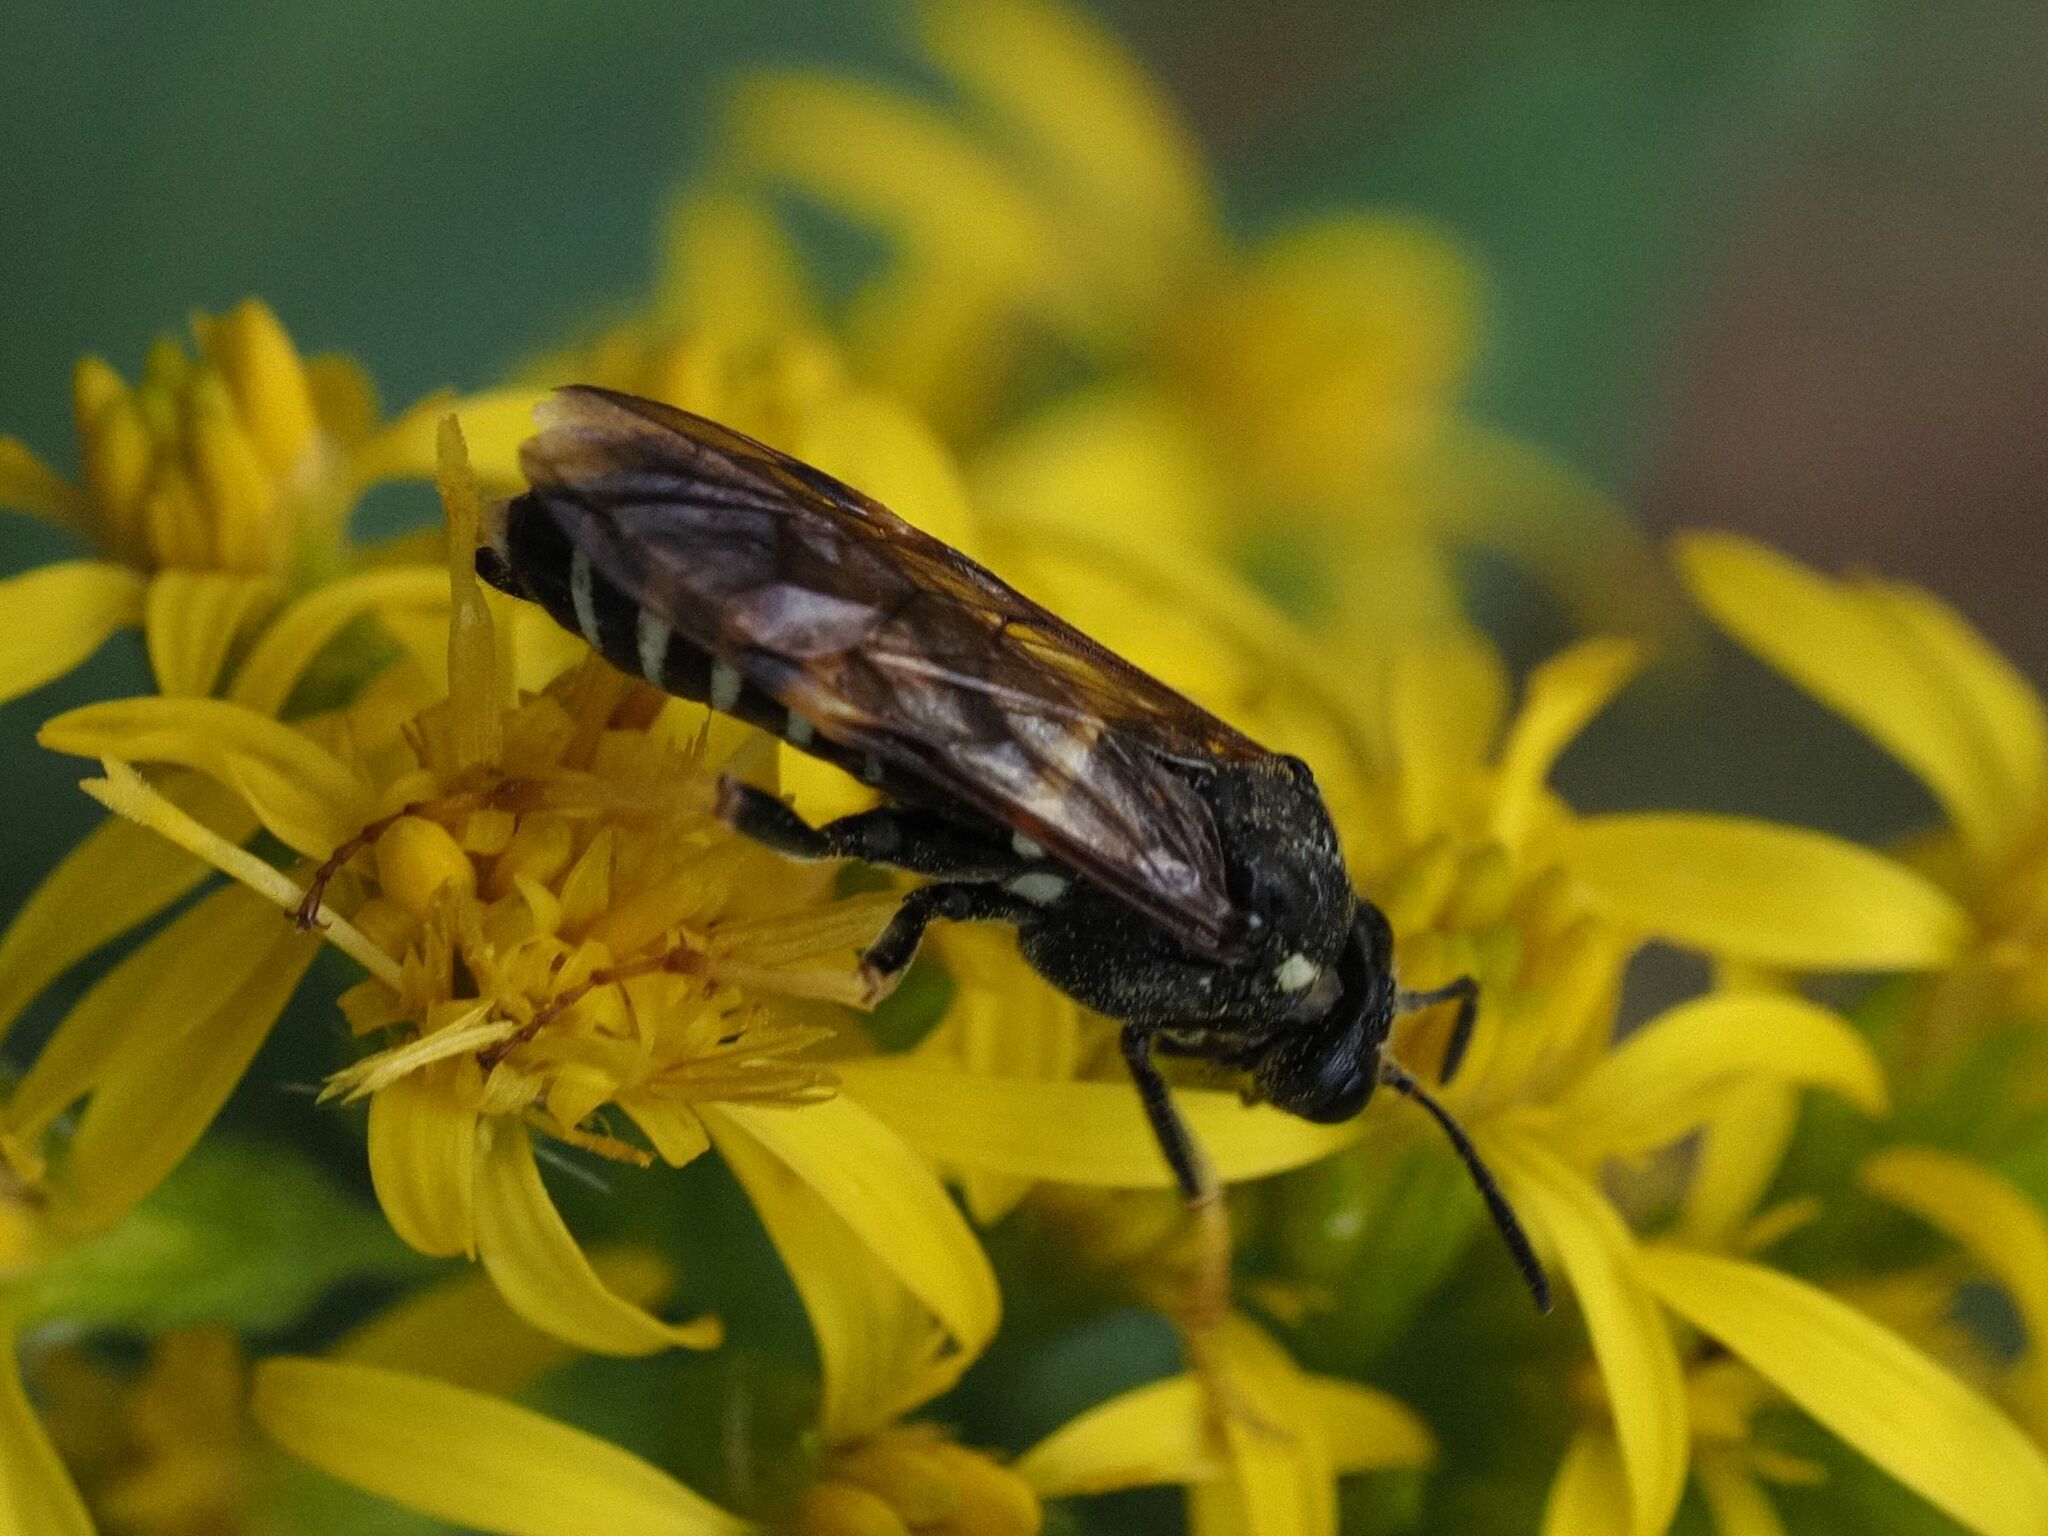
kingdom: Animalia
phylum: Arthropoda
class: Insecta
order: Hymenoptera
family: Tenthredinidae
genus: Tenthredo
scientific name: Tenthredo koehleri
